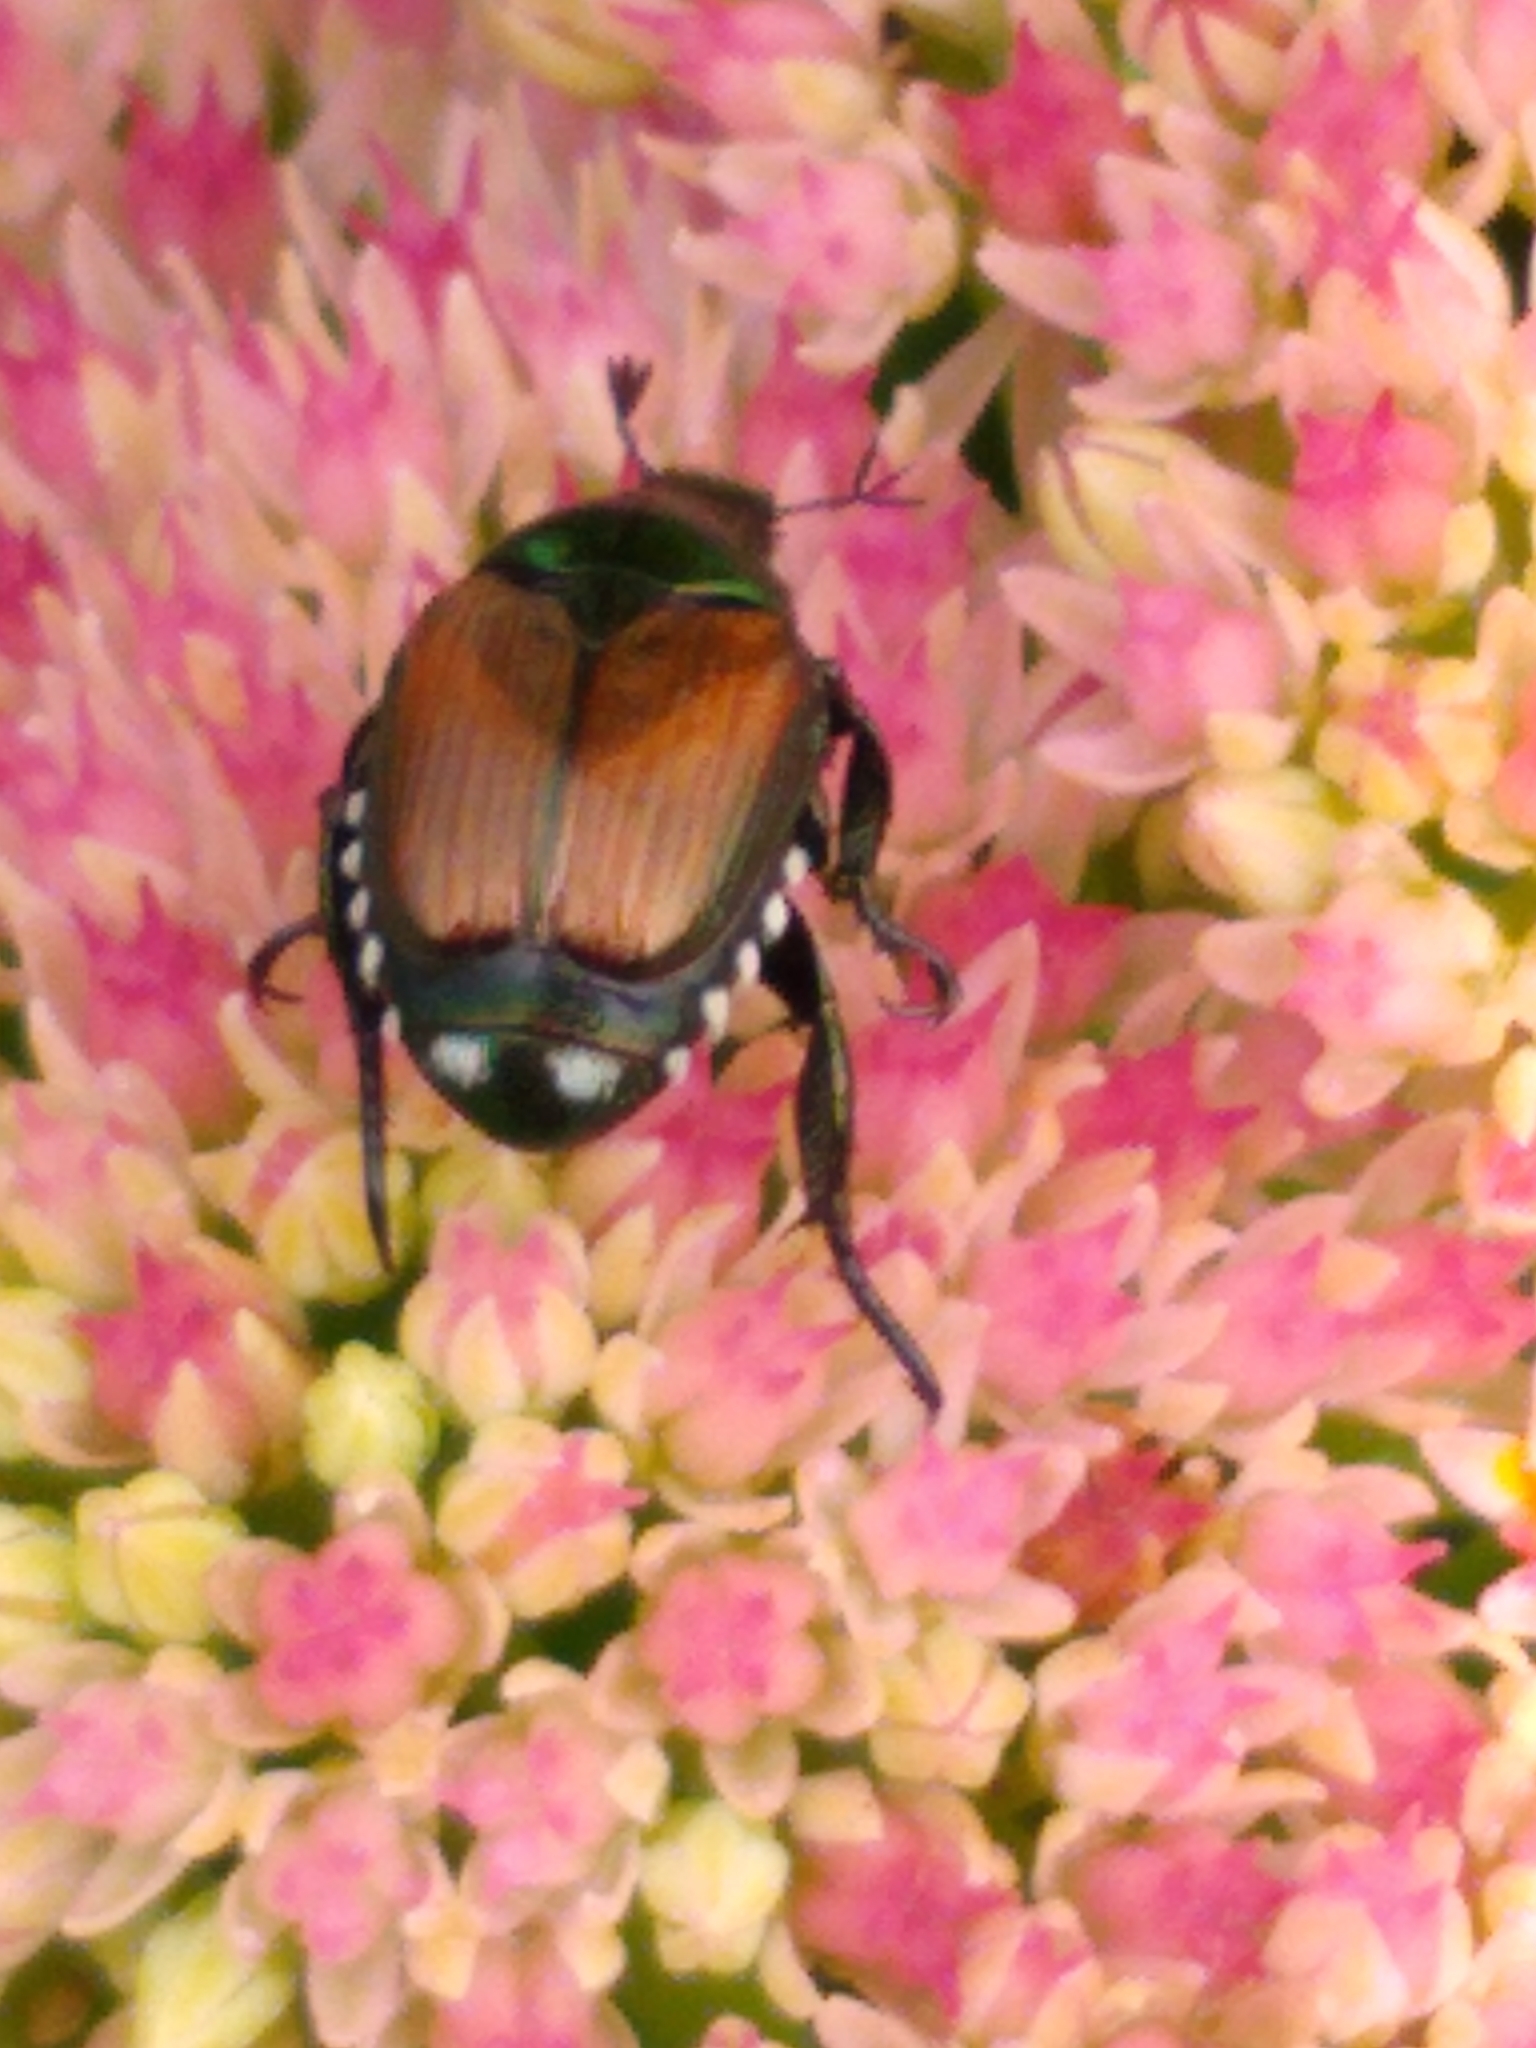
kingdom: Animalia
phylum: Arthropoda
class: Insecta
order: Coleoptera
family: Scarabaeidae
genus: Popillia
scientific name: Popillia japonica
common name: Japanese beetle
